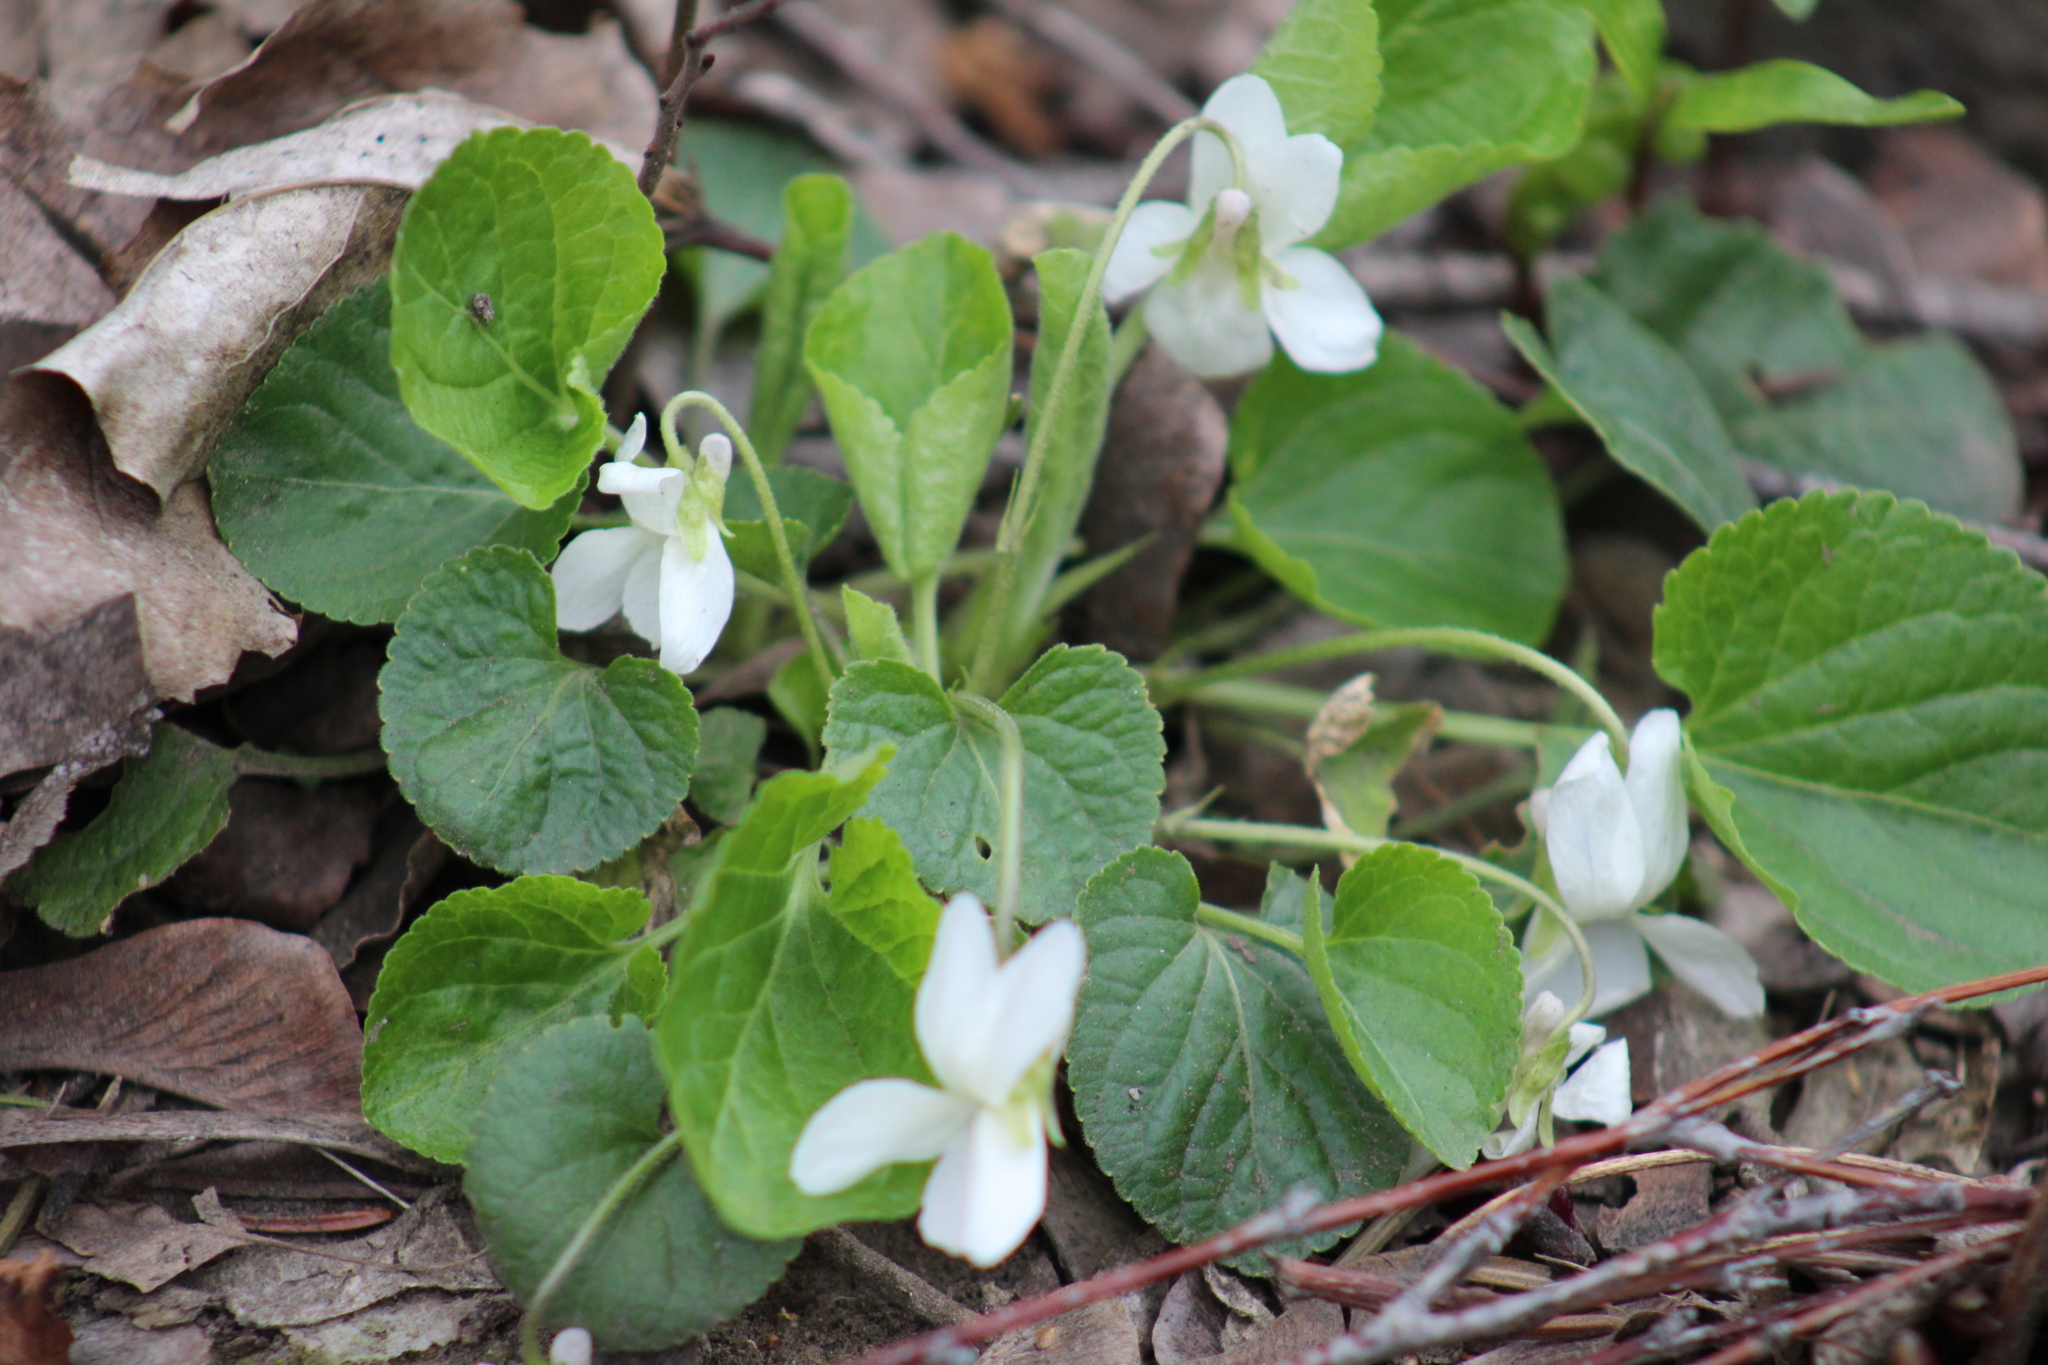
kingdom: Plantae
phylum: Tracheophyta
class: Magnoliopsida
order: Malpighiales
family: Violaceae
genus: Viola
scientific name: Viola odorata
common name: Sweet violet
